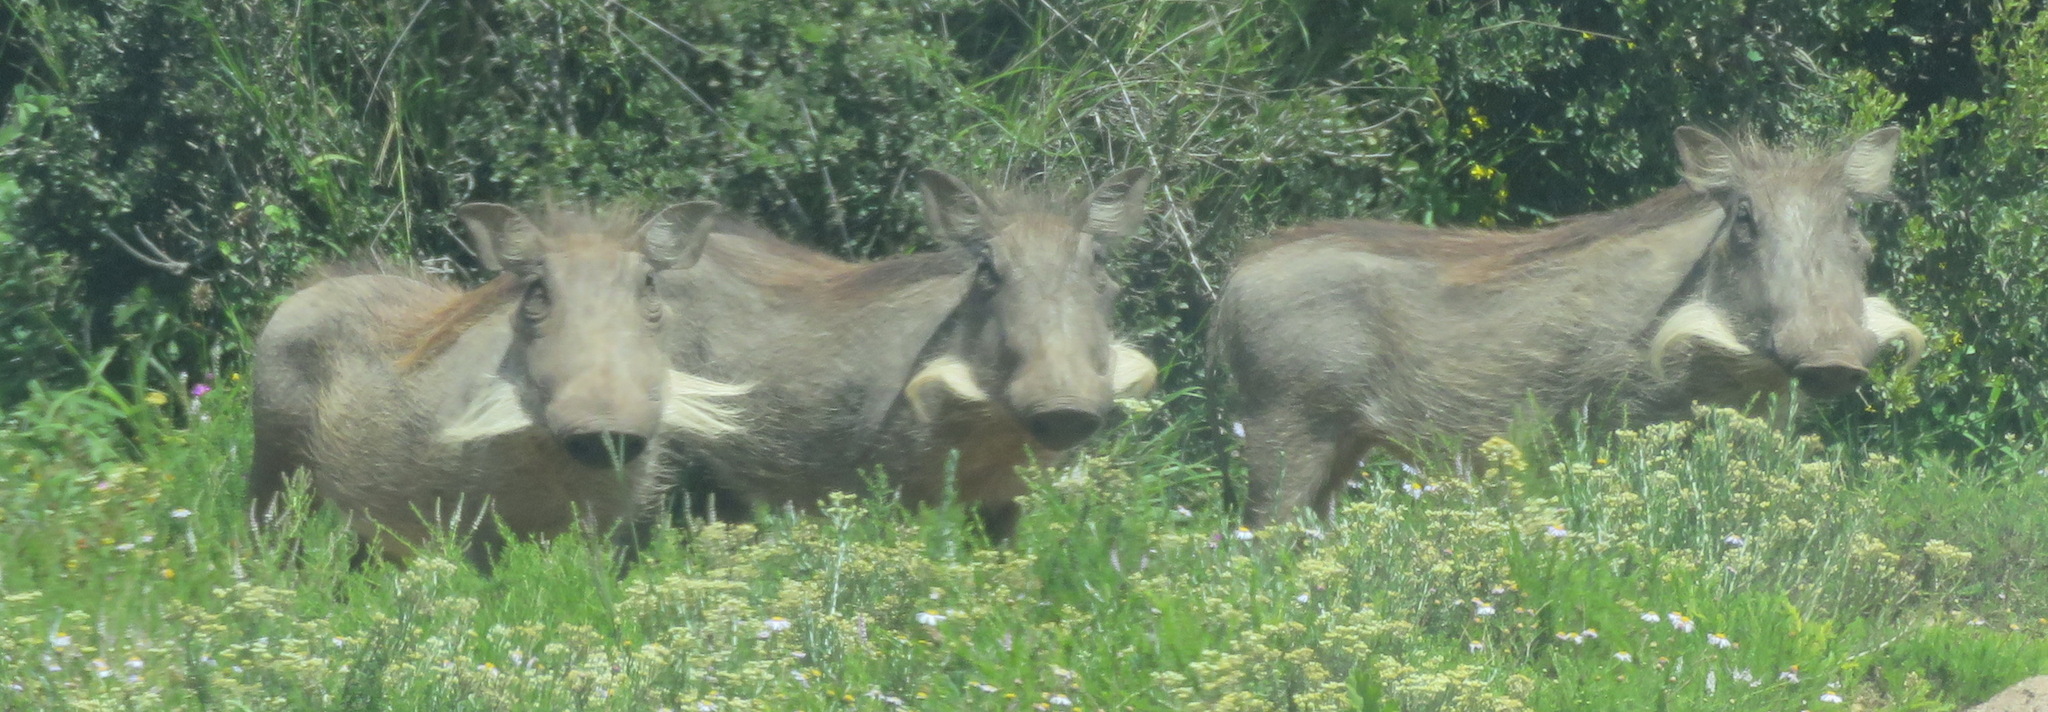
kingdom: Animalia
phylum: Chordata
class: Mammalia
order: Artiodactyla
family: Suidae
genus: Phacochoerus
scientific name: Phacochoerus africanus
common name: Common warthog
